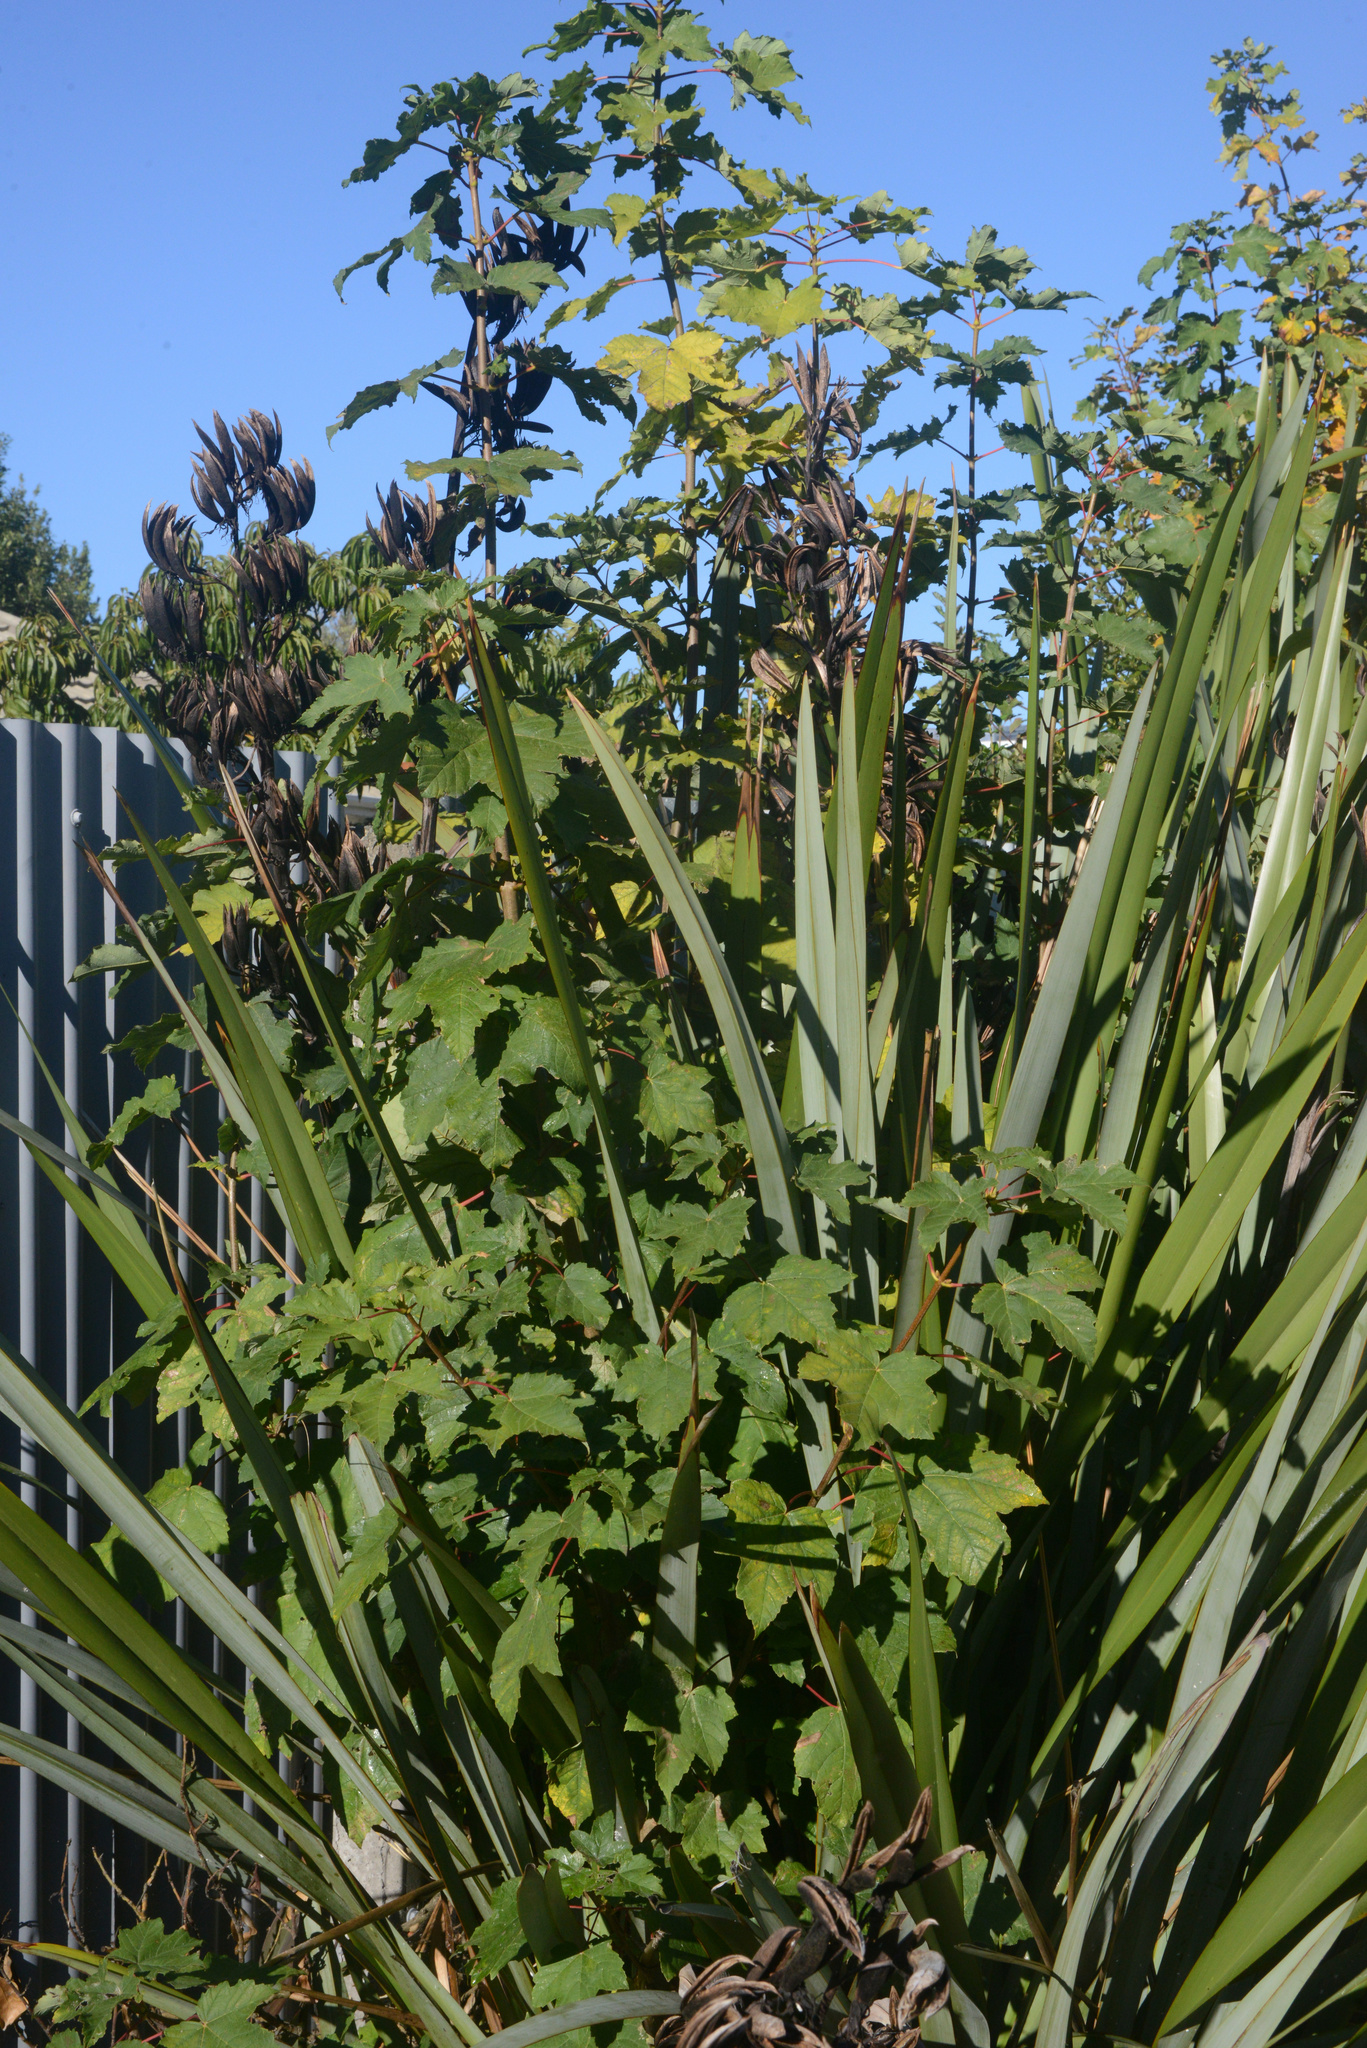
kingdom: Plantae
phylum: Tracheophyta
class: Magnoliopsida
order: Sapindales
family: Sapindaceae
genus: Acer
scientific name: Acer pseudoplatanus
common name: Sycamore
